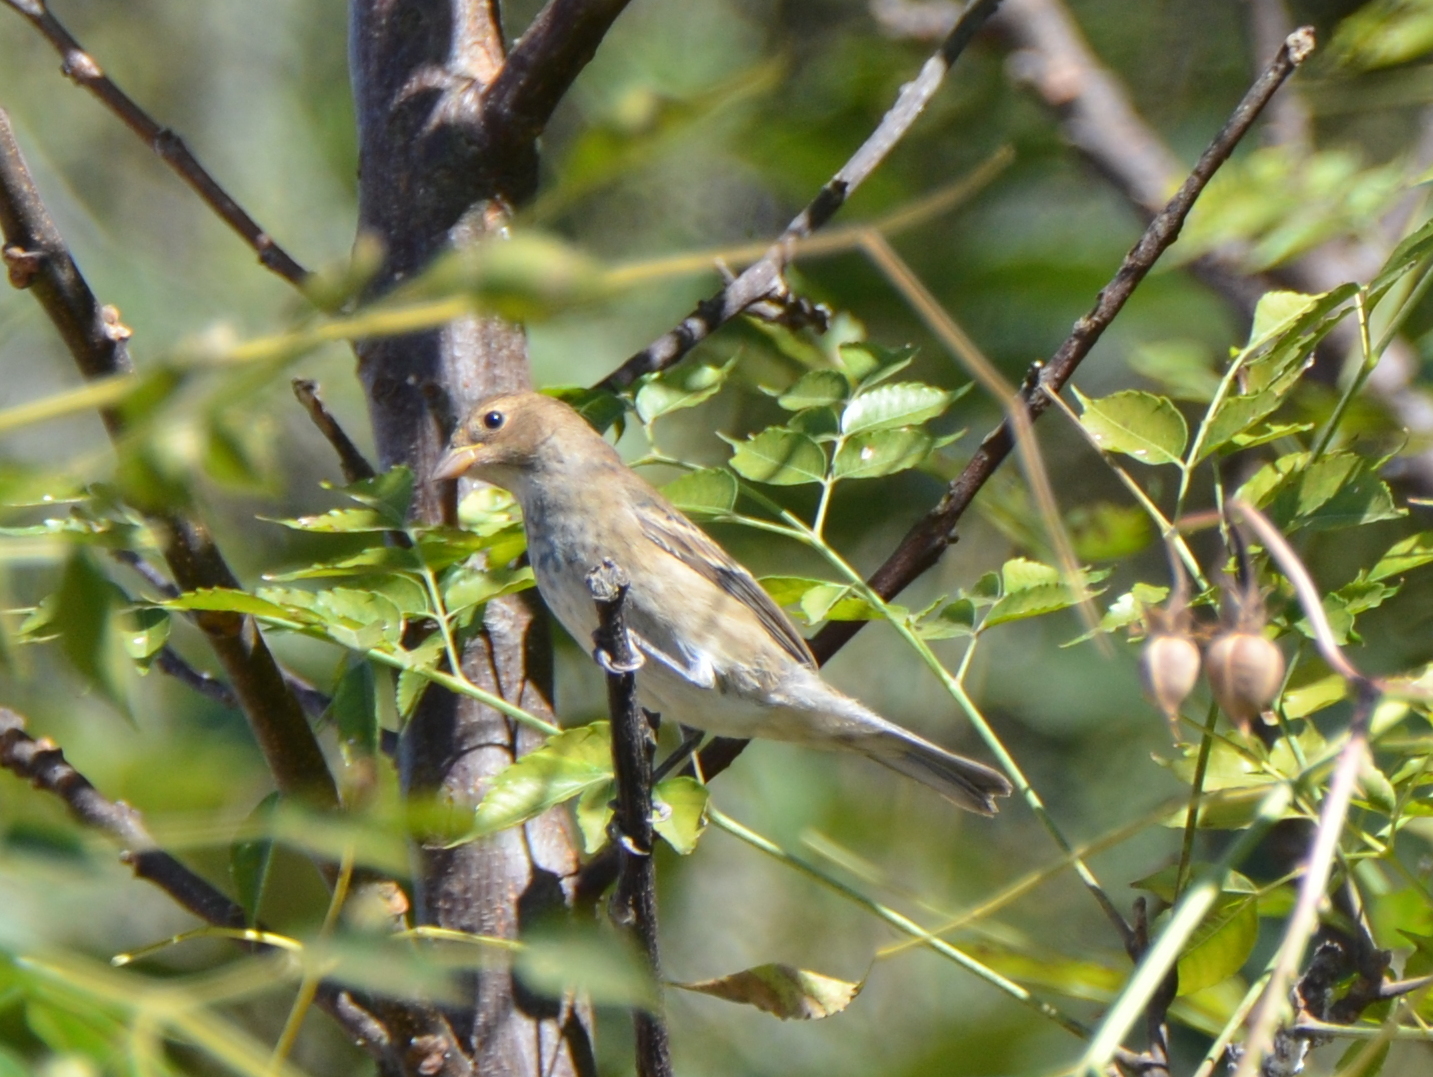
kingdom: Animalia
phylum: Chordata
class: Aves
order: Passeriformes
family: Cardinalidae
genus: Passerina
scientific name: Passerina cyanea
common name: Indigo bunting
